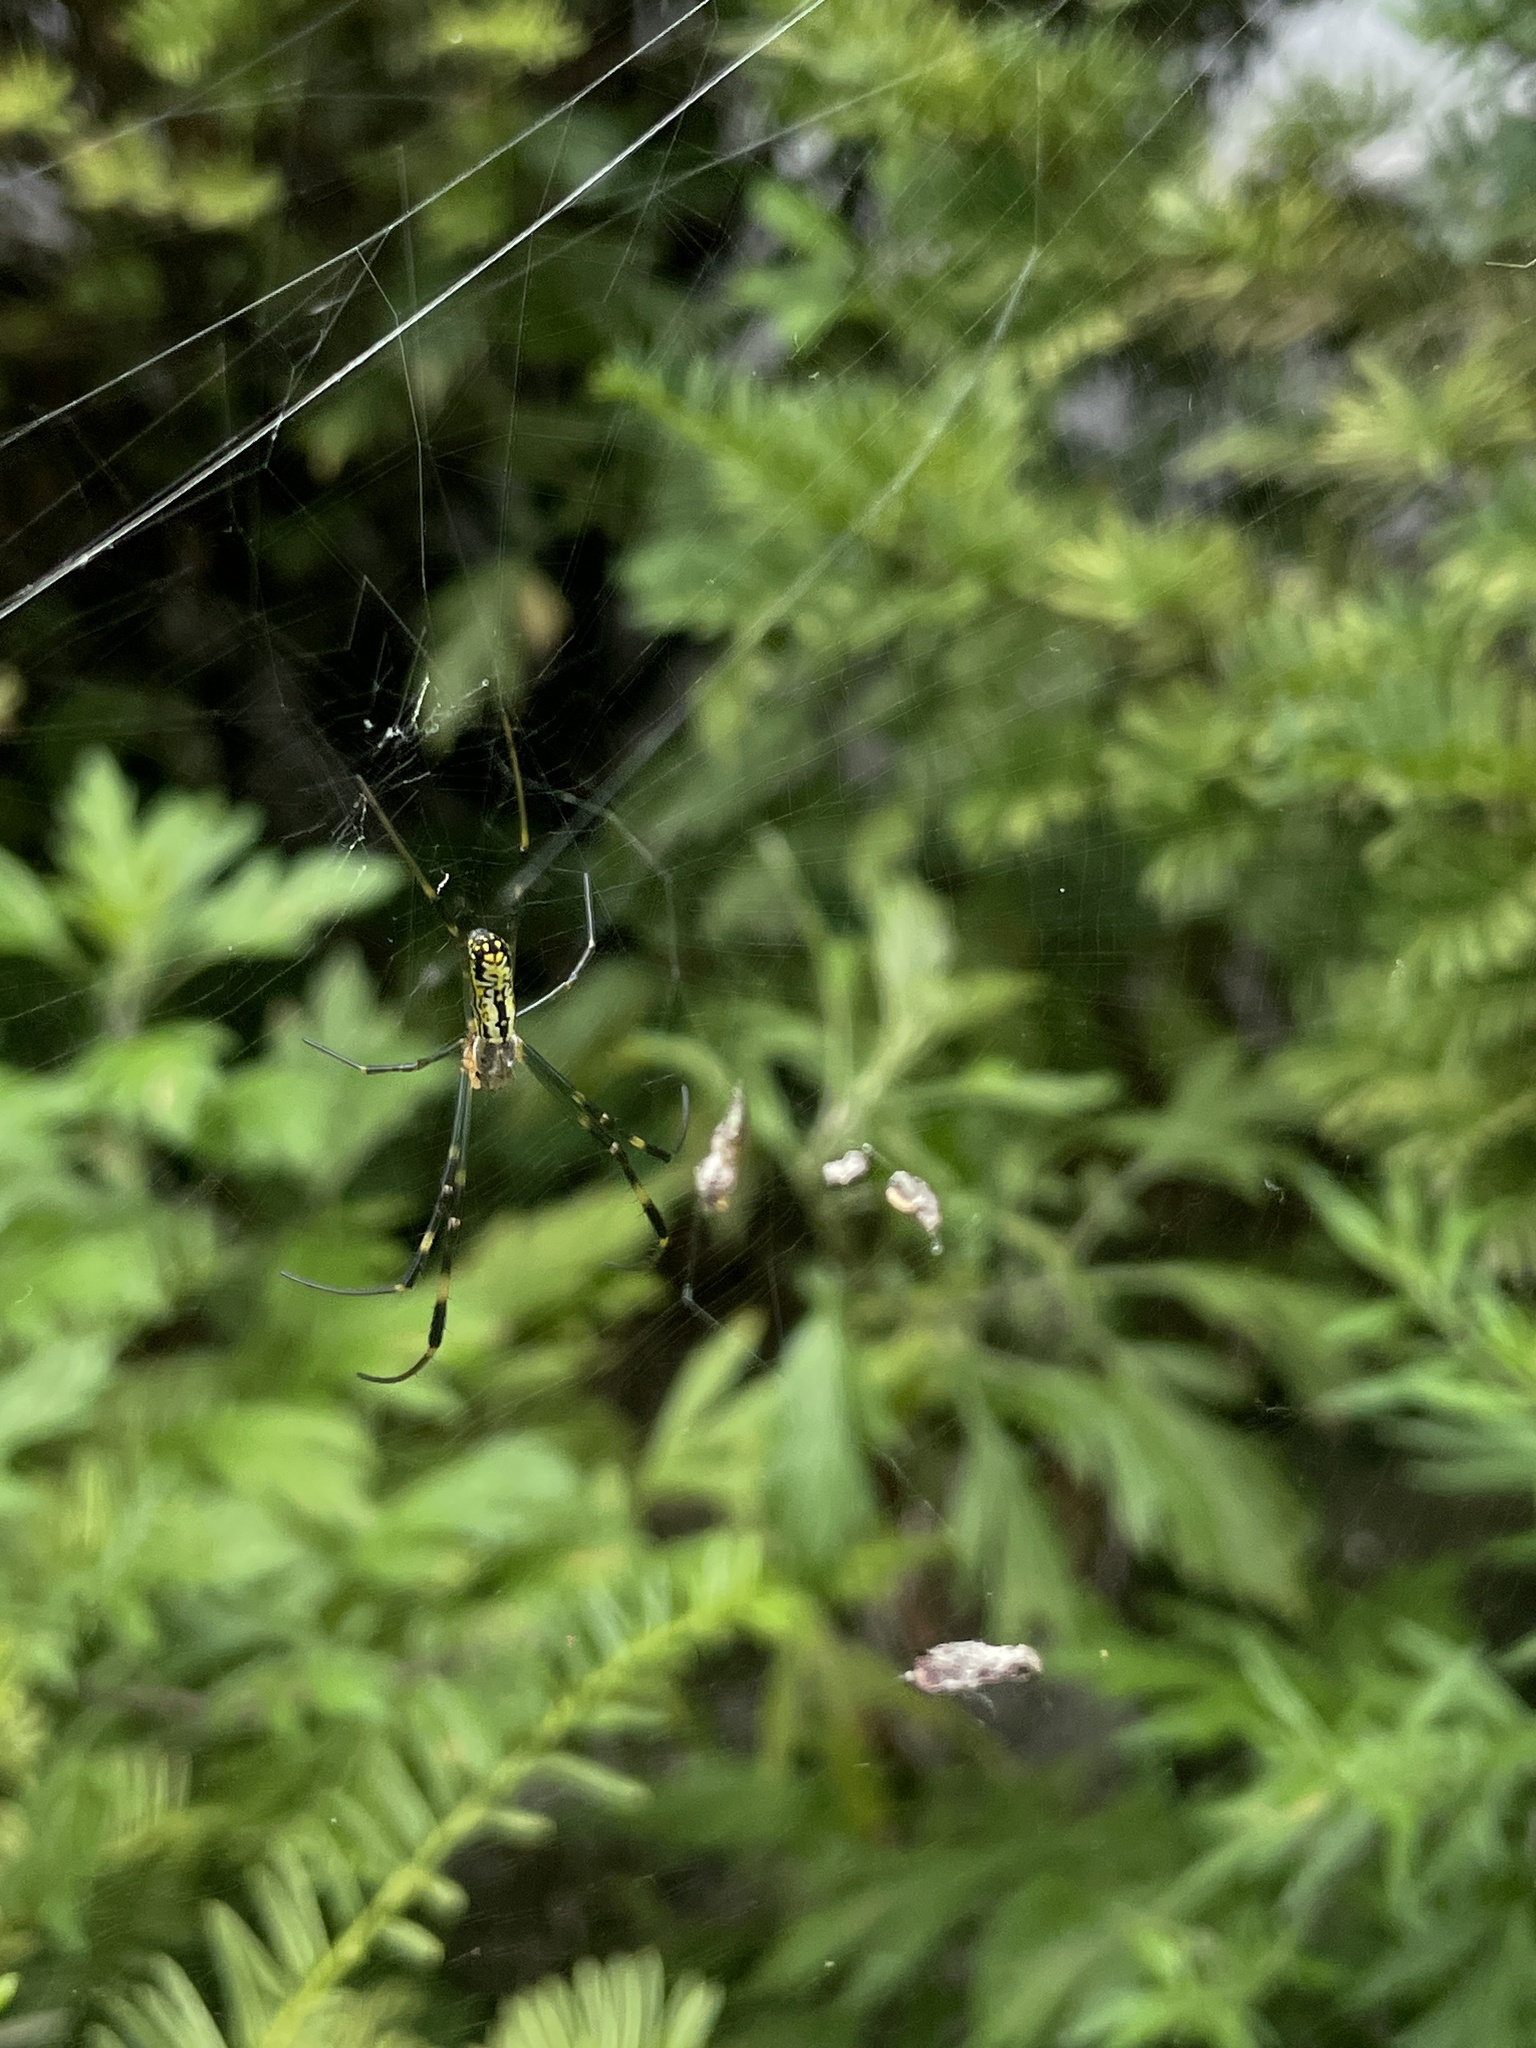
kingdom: Animalia
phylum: Arthropoda
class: Arachnida
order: Araneae
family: Araneidae
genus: Trichonephila
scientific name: Trichonephila clavata
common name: Jorō spider
